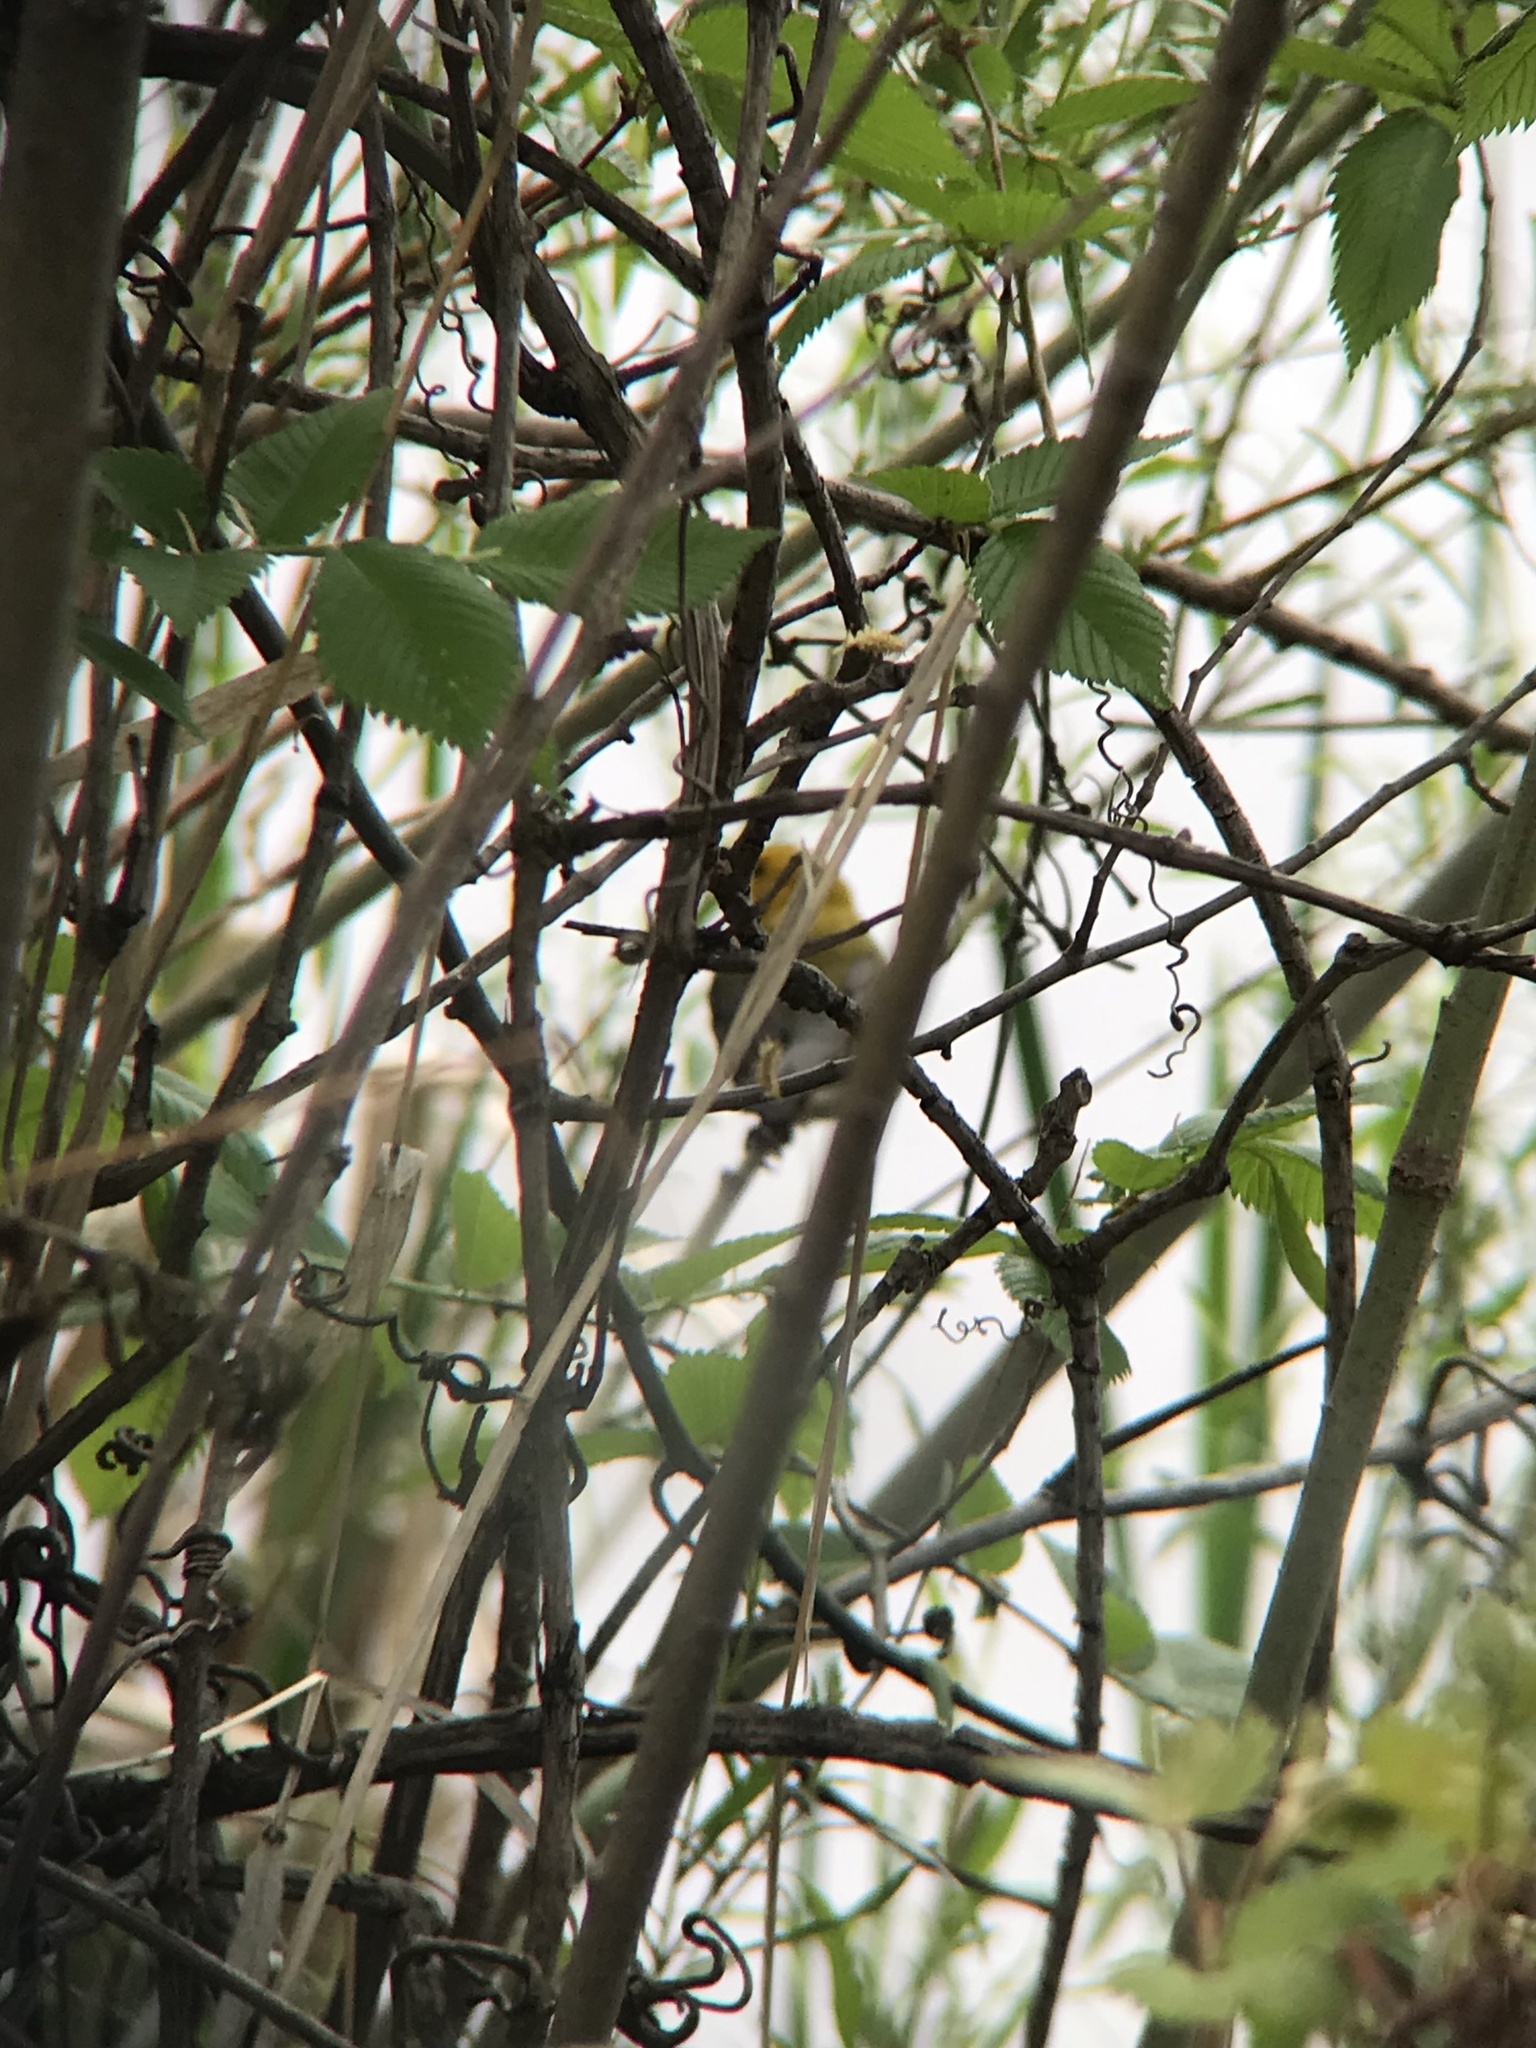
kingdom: Animalia
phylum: Chordata
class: Aves
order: Passeriformes
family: Parulidae
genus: Protonotaria
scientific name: Protonotaria citrea
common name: Prothonotary warbler
